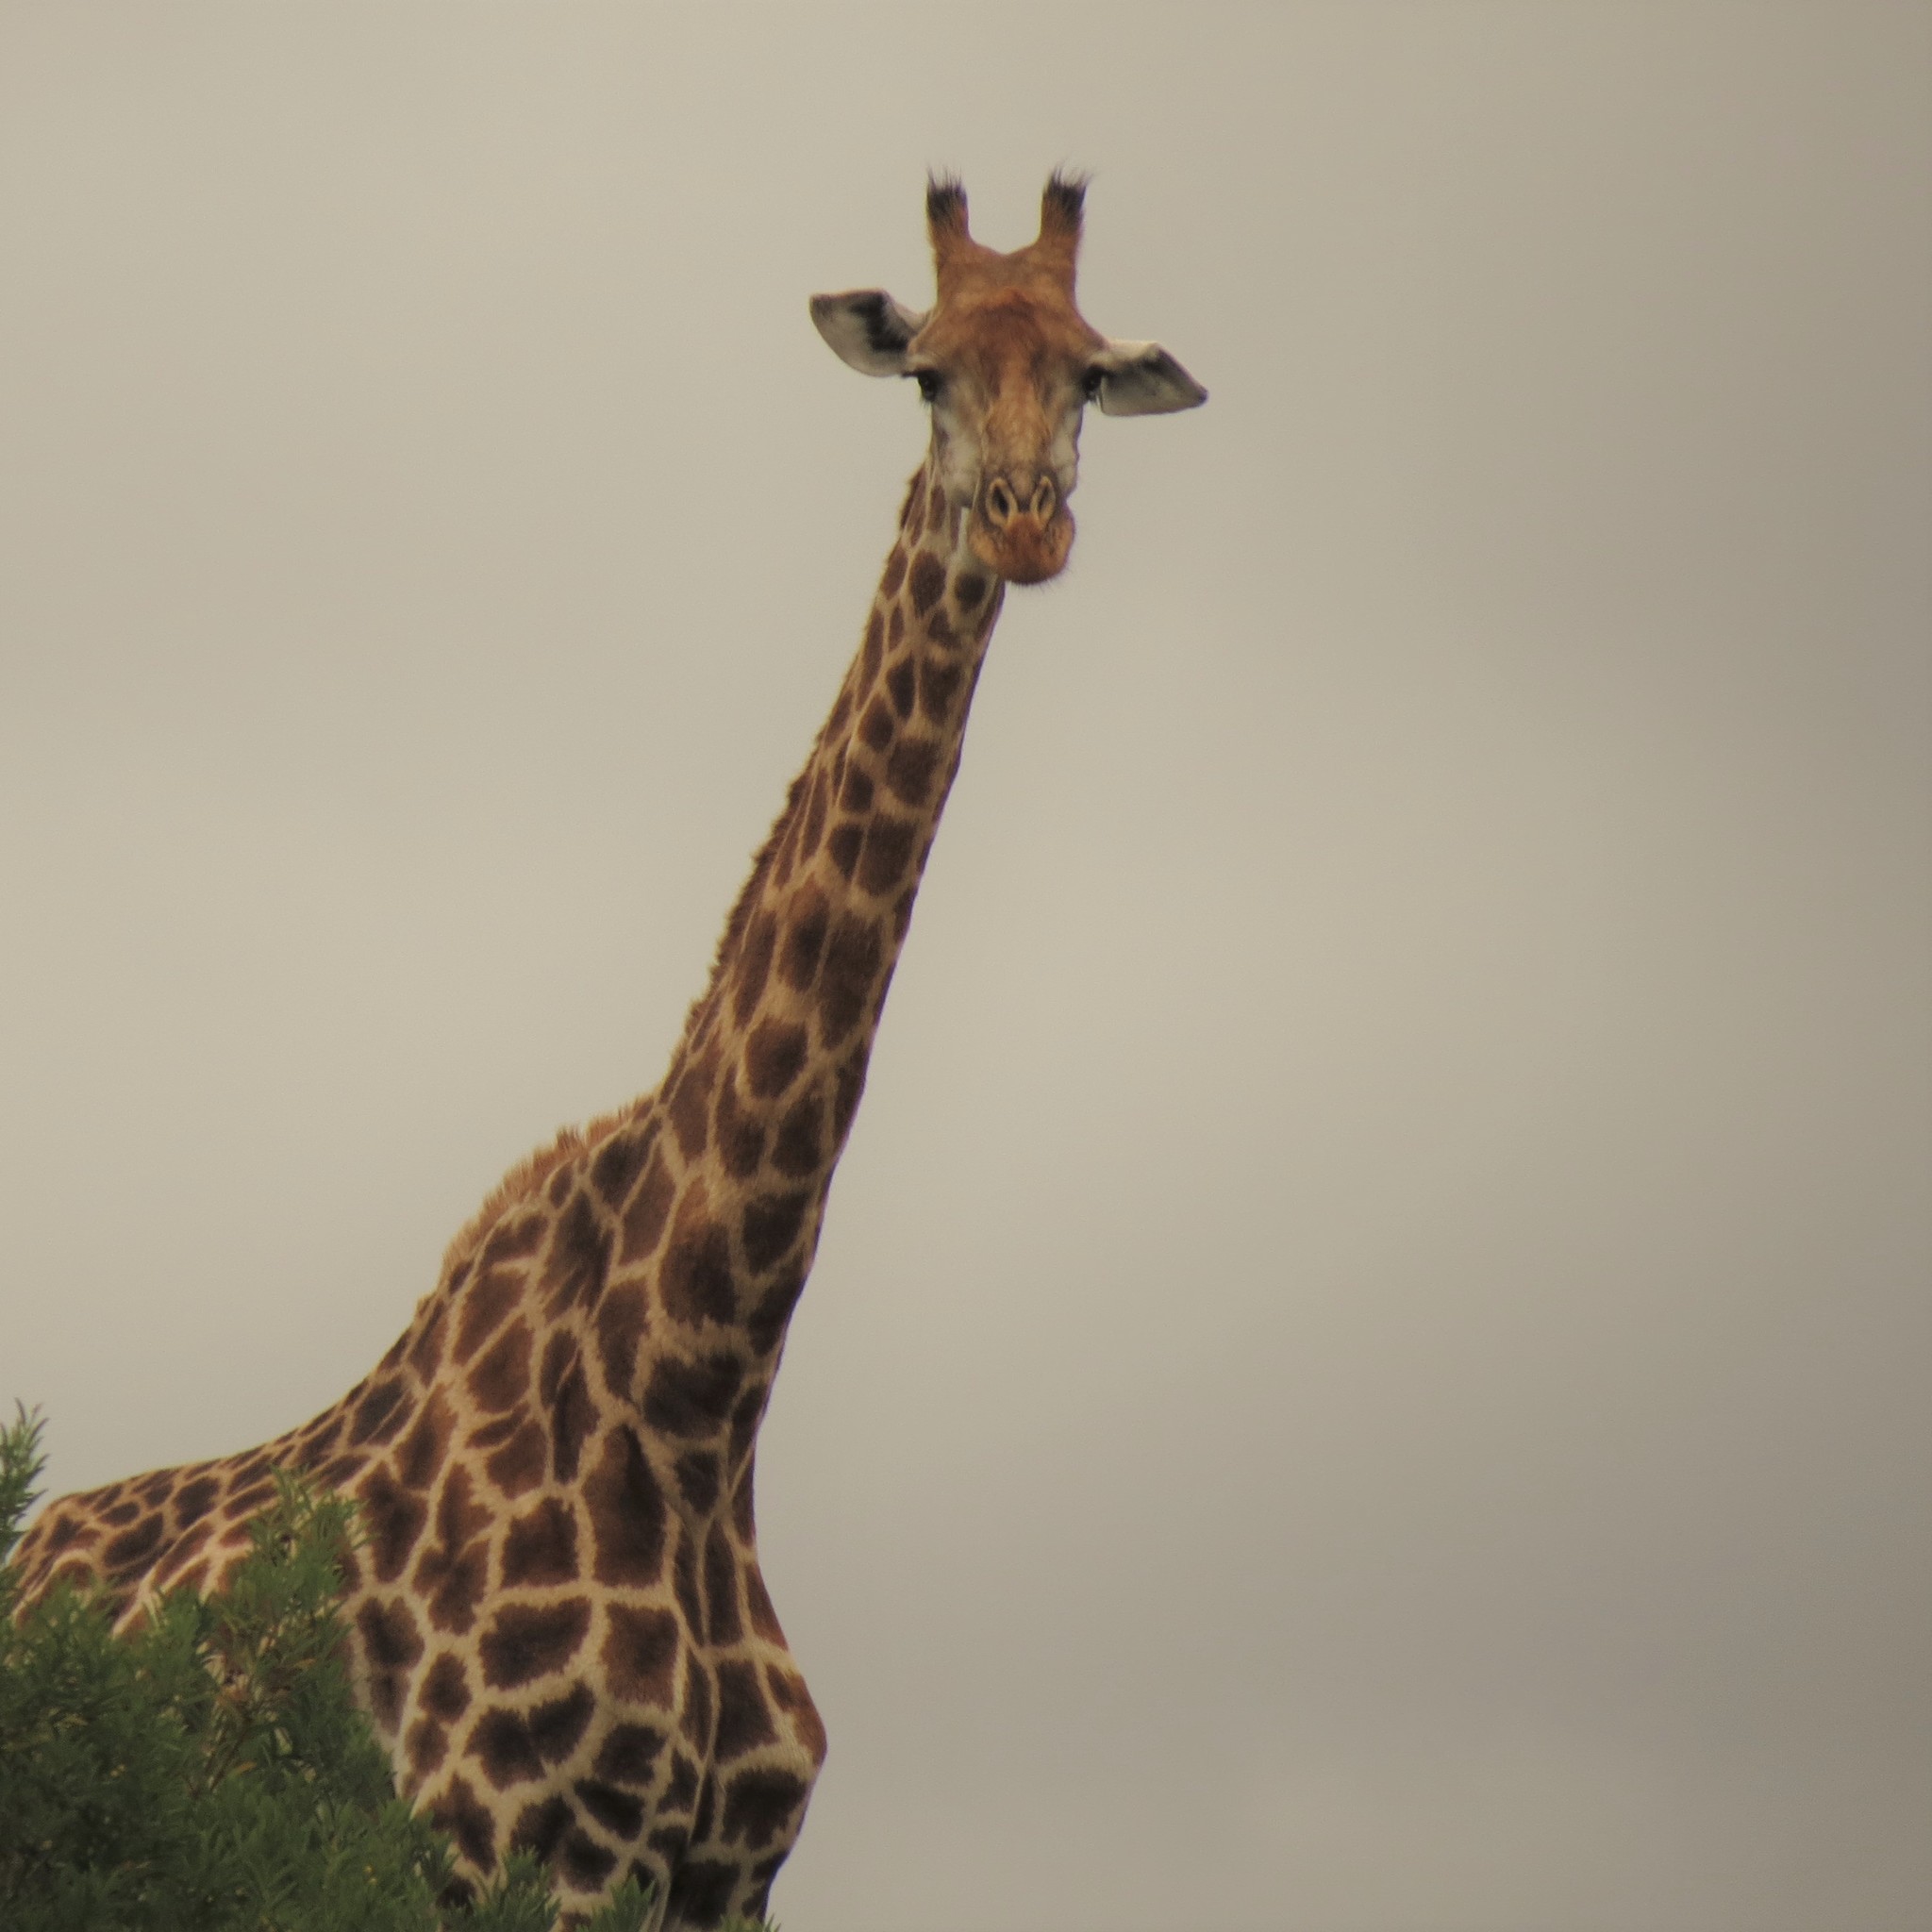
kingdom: Animalia
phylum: Chordata
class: Mammalia
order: Artiodactyla
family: Giraffidae
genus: Giraffa
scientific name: Giraffa giraffa
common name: Southern giraffe
